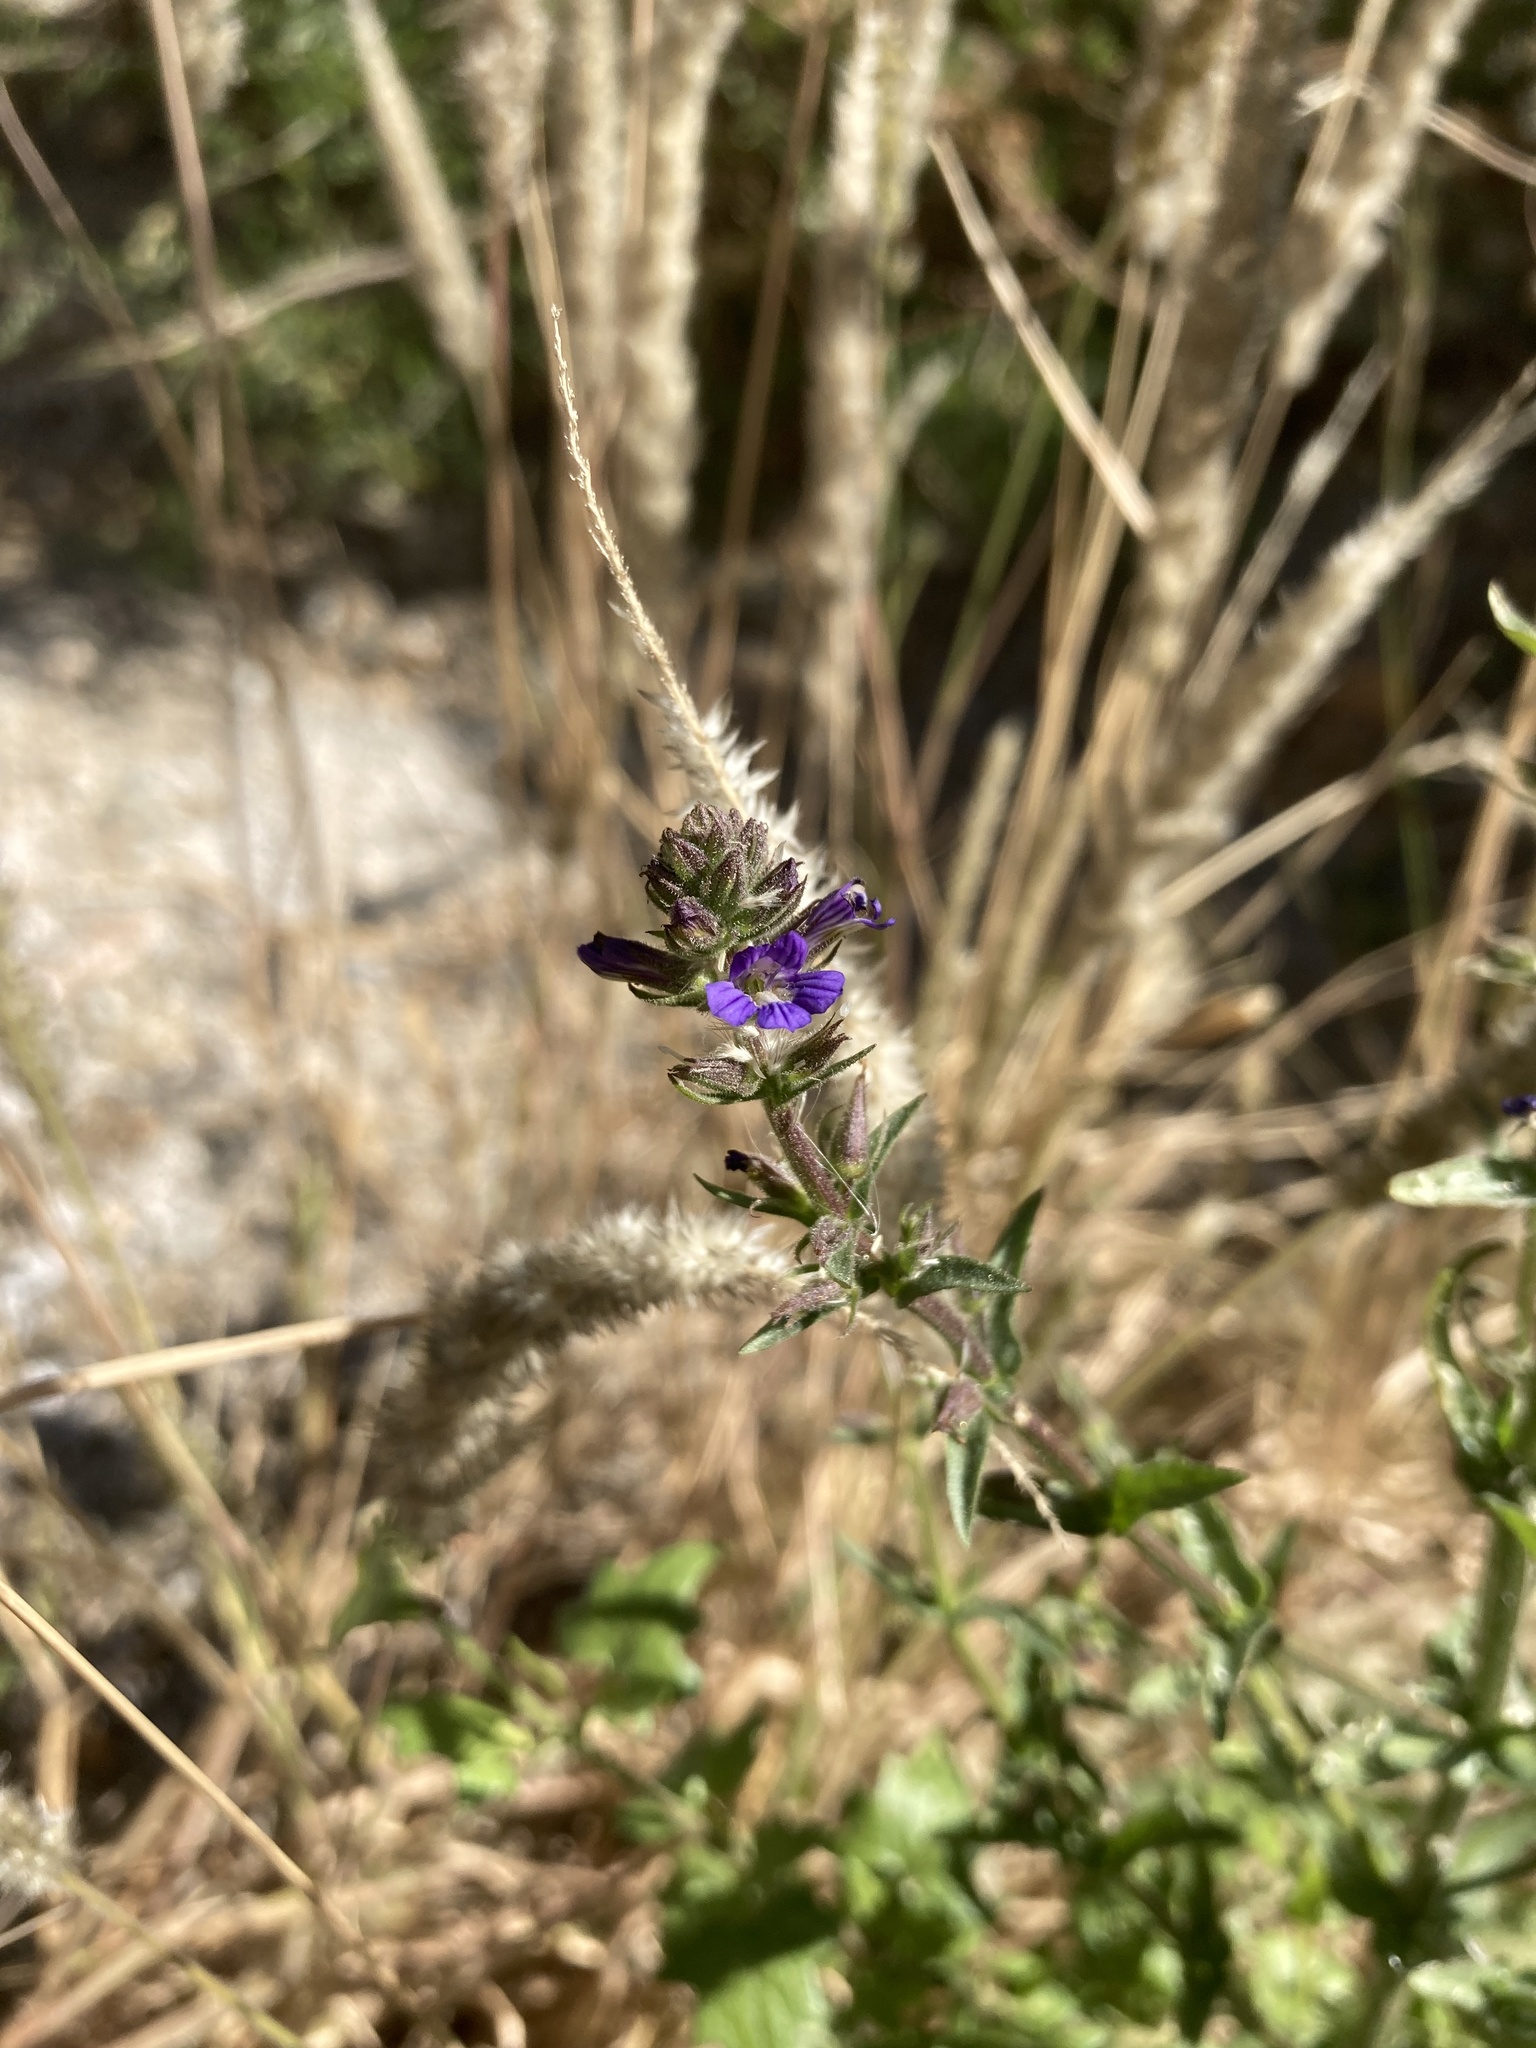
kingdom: Plantae
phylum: Tracheophyta
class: Magnoliopsida
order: Lamiales
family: Plantaginaceae
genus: Stemodia
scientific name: Stemodia durantifolia
